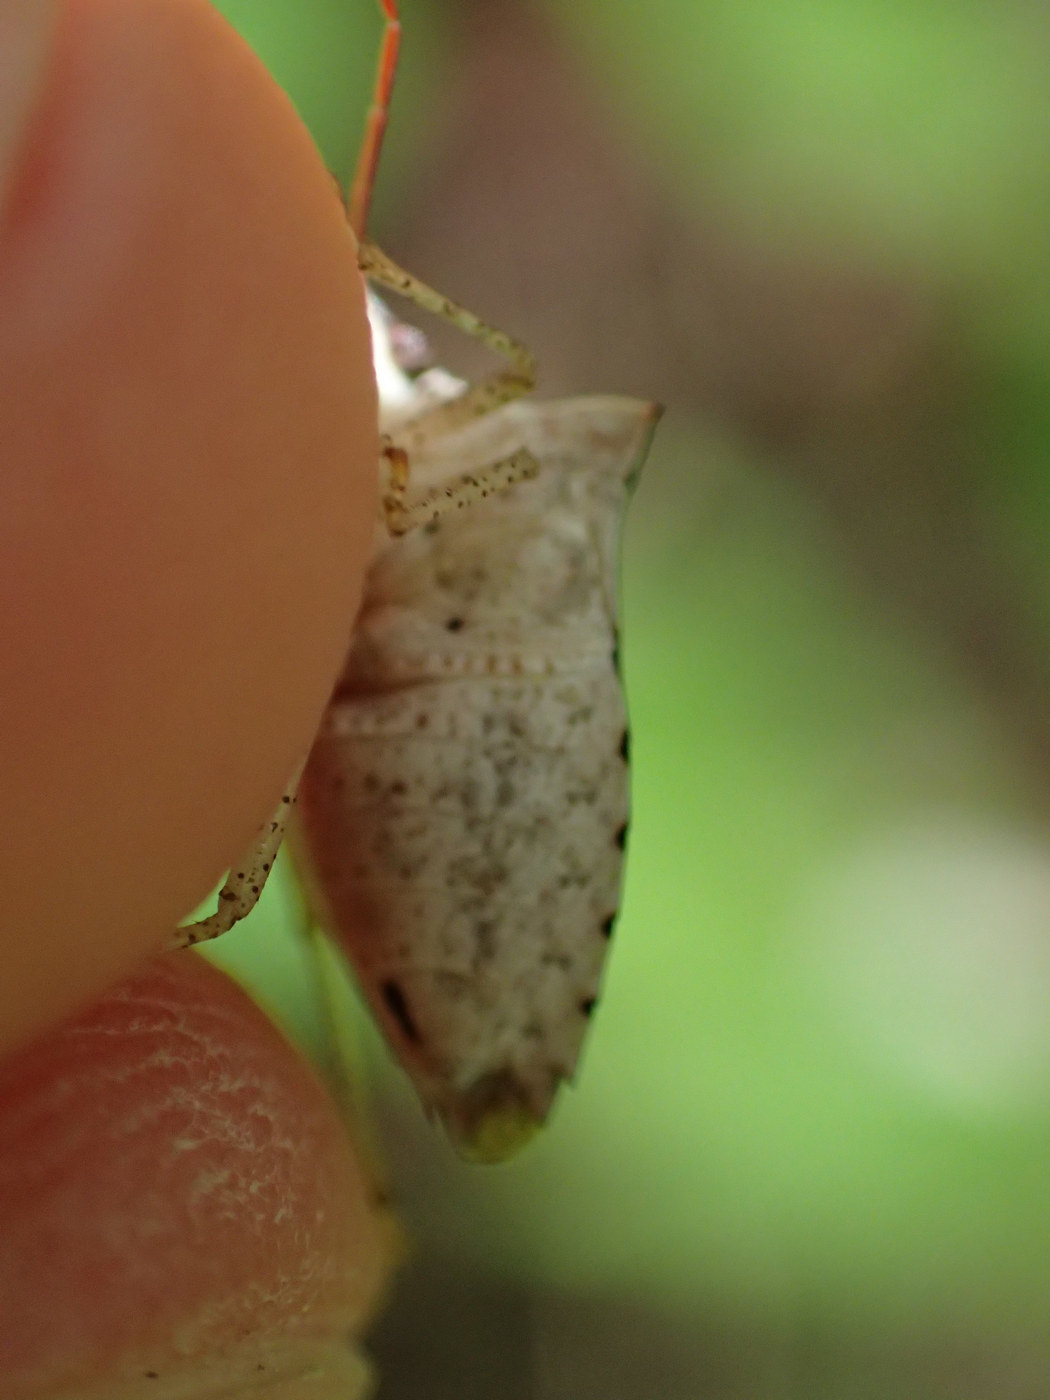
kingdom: Animalia
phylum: Arthropoda
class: Insecta
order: Hemiptera
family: Pentatomidae
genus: Euschistus
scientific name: Euschistus tristigmus
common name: Dusky stink bug
